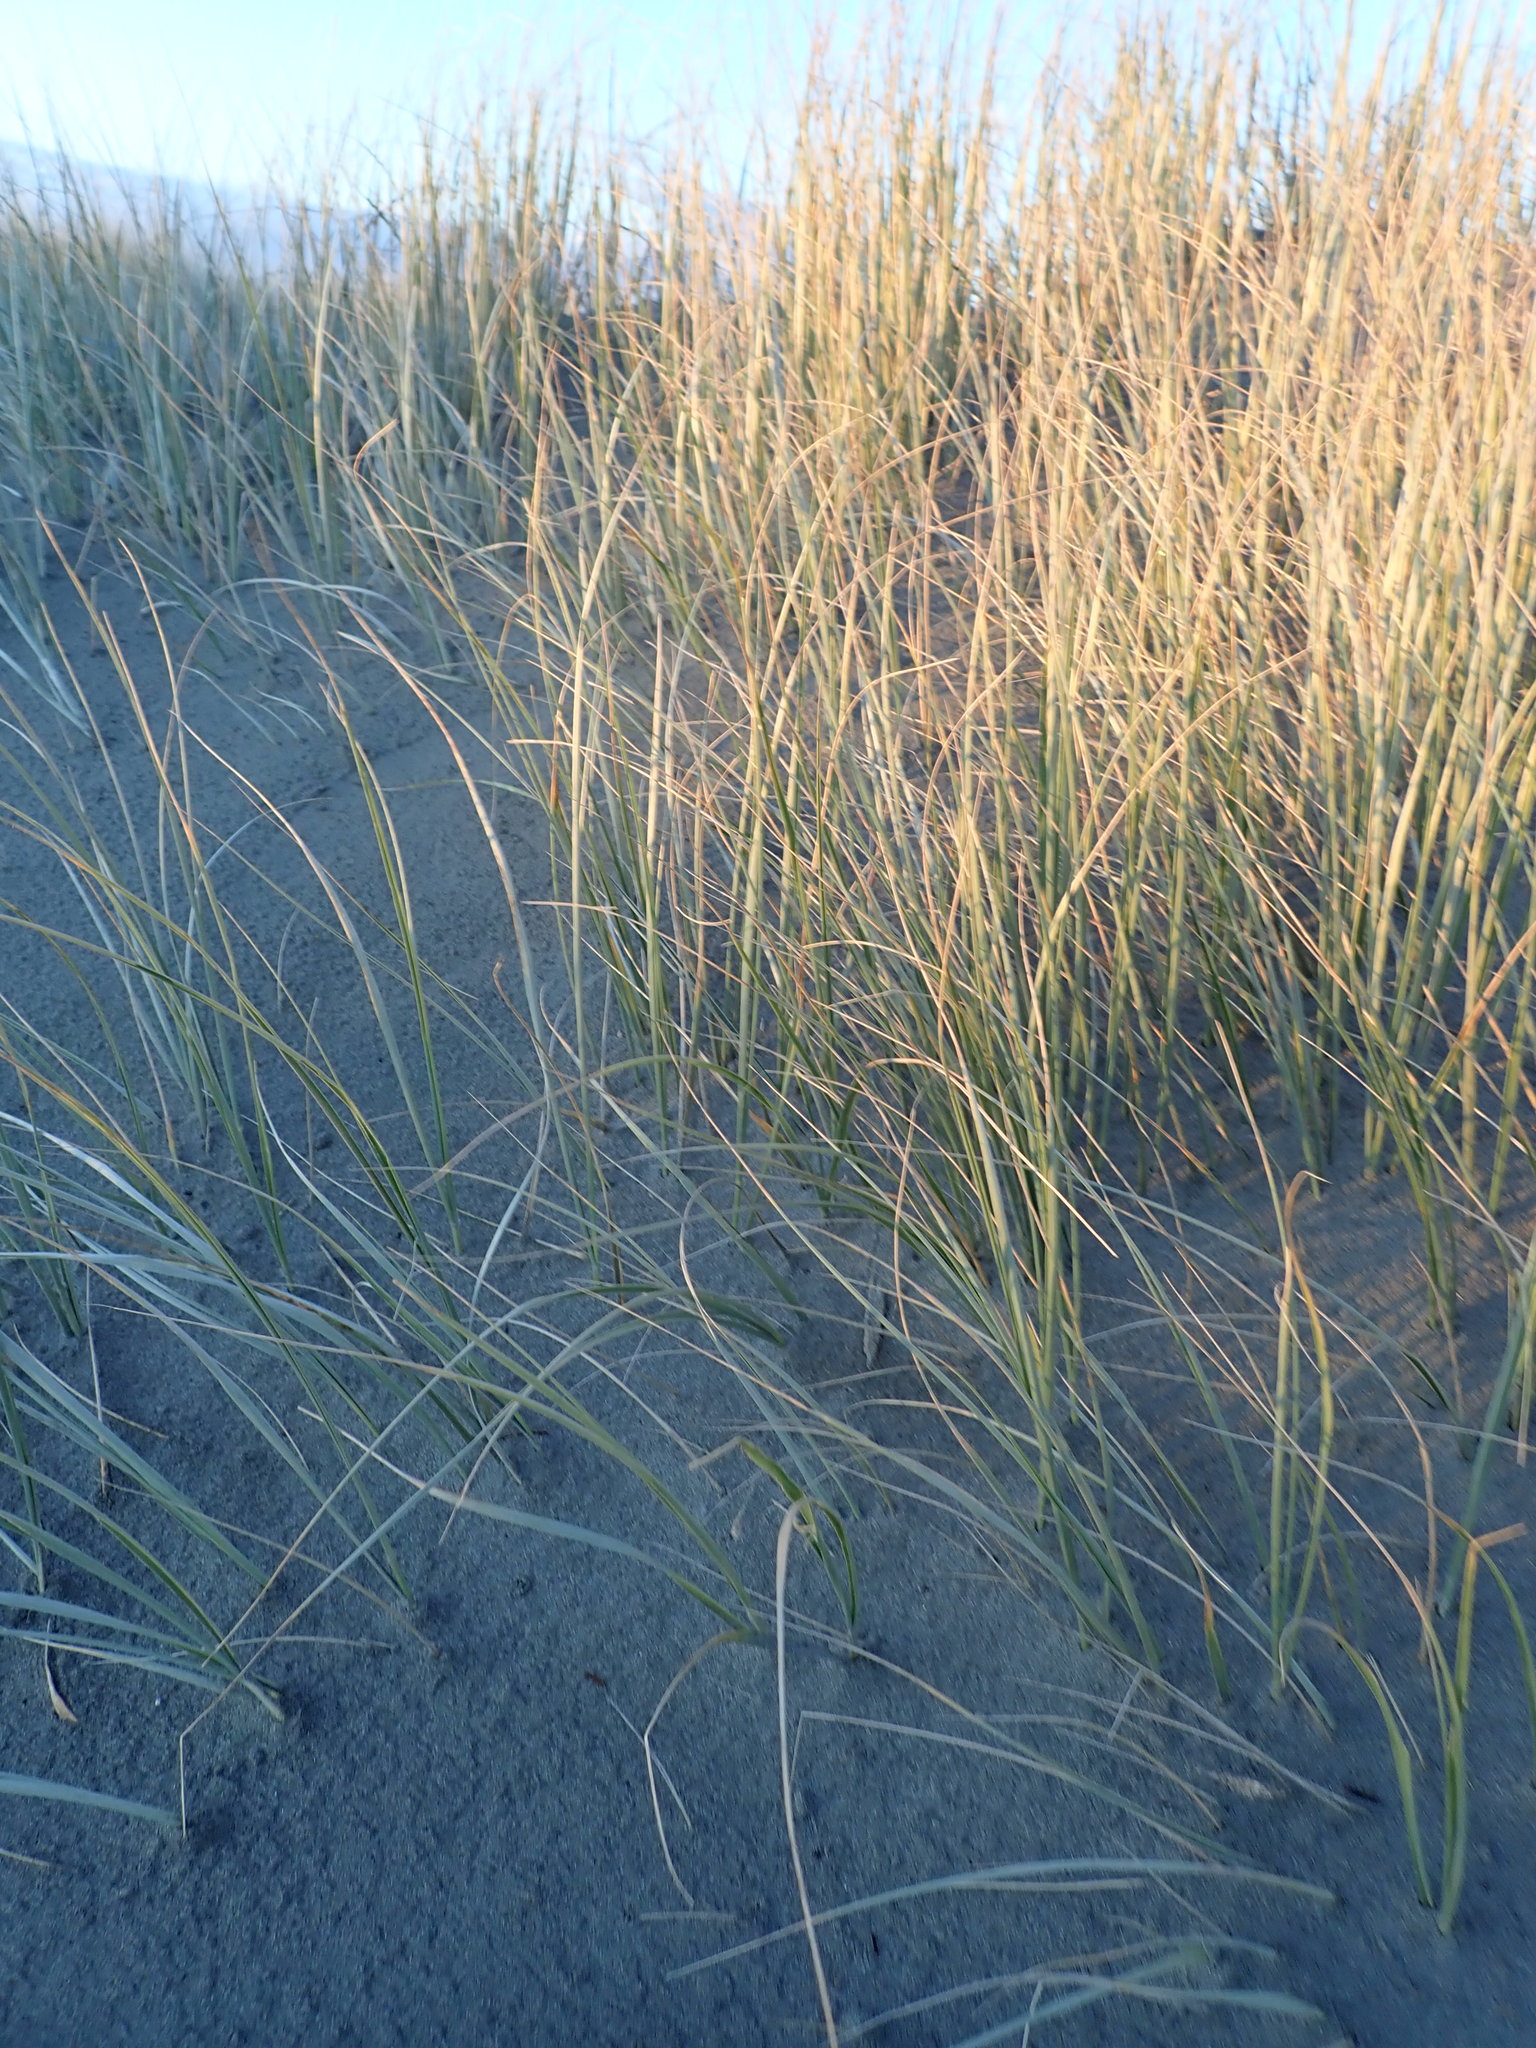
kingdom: Plantae
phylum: Tracheophyta
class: Liliopsida
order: Poales
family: Poaceae
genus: Spinifex
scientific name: Spinifex sericeus
